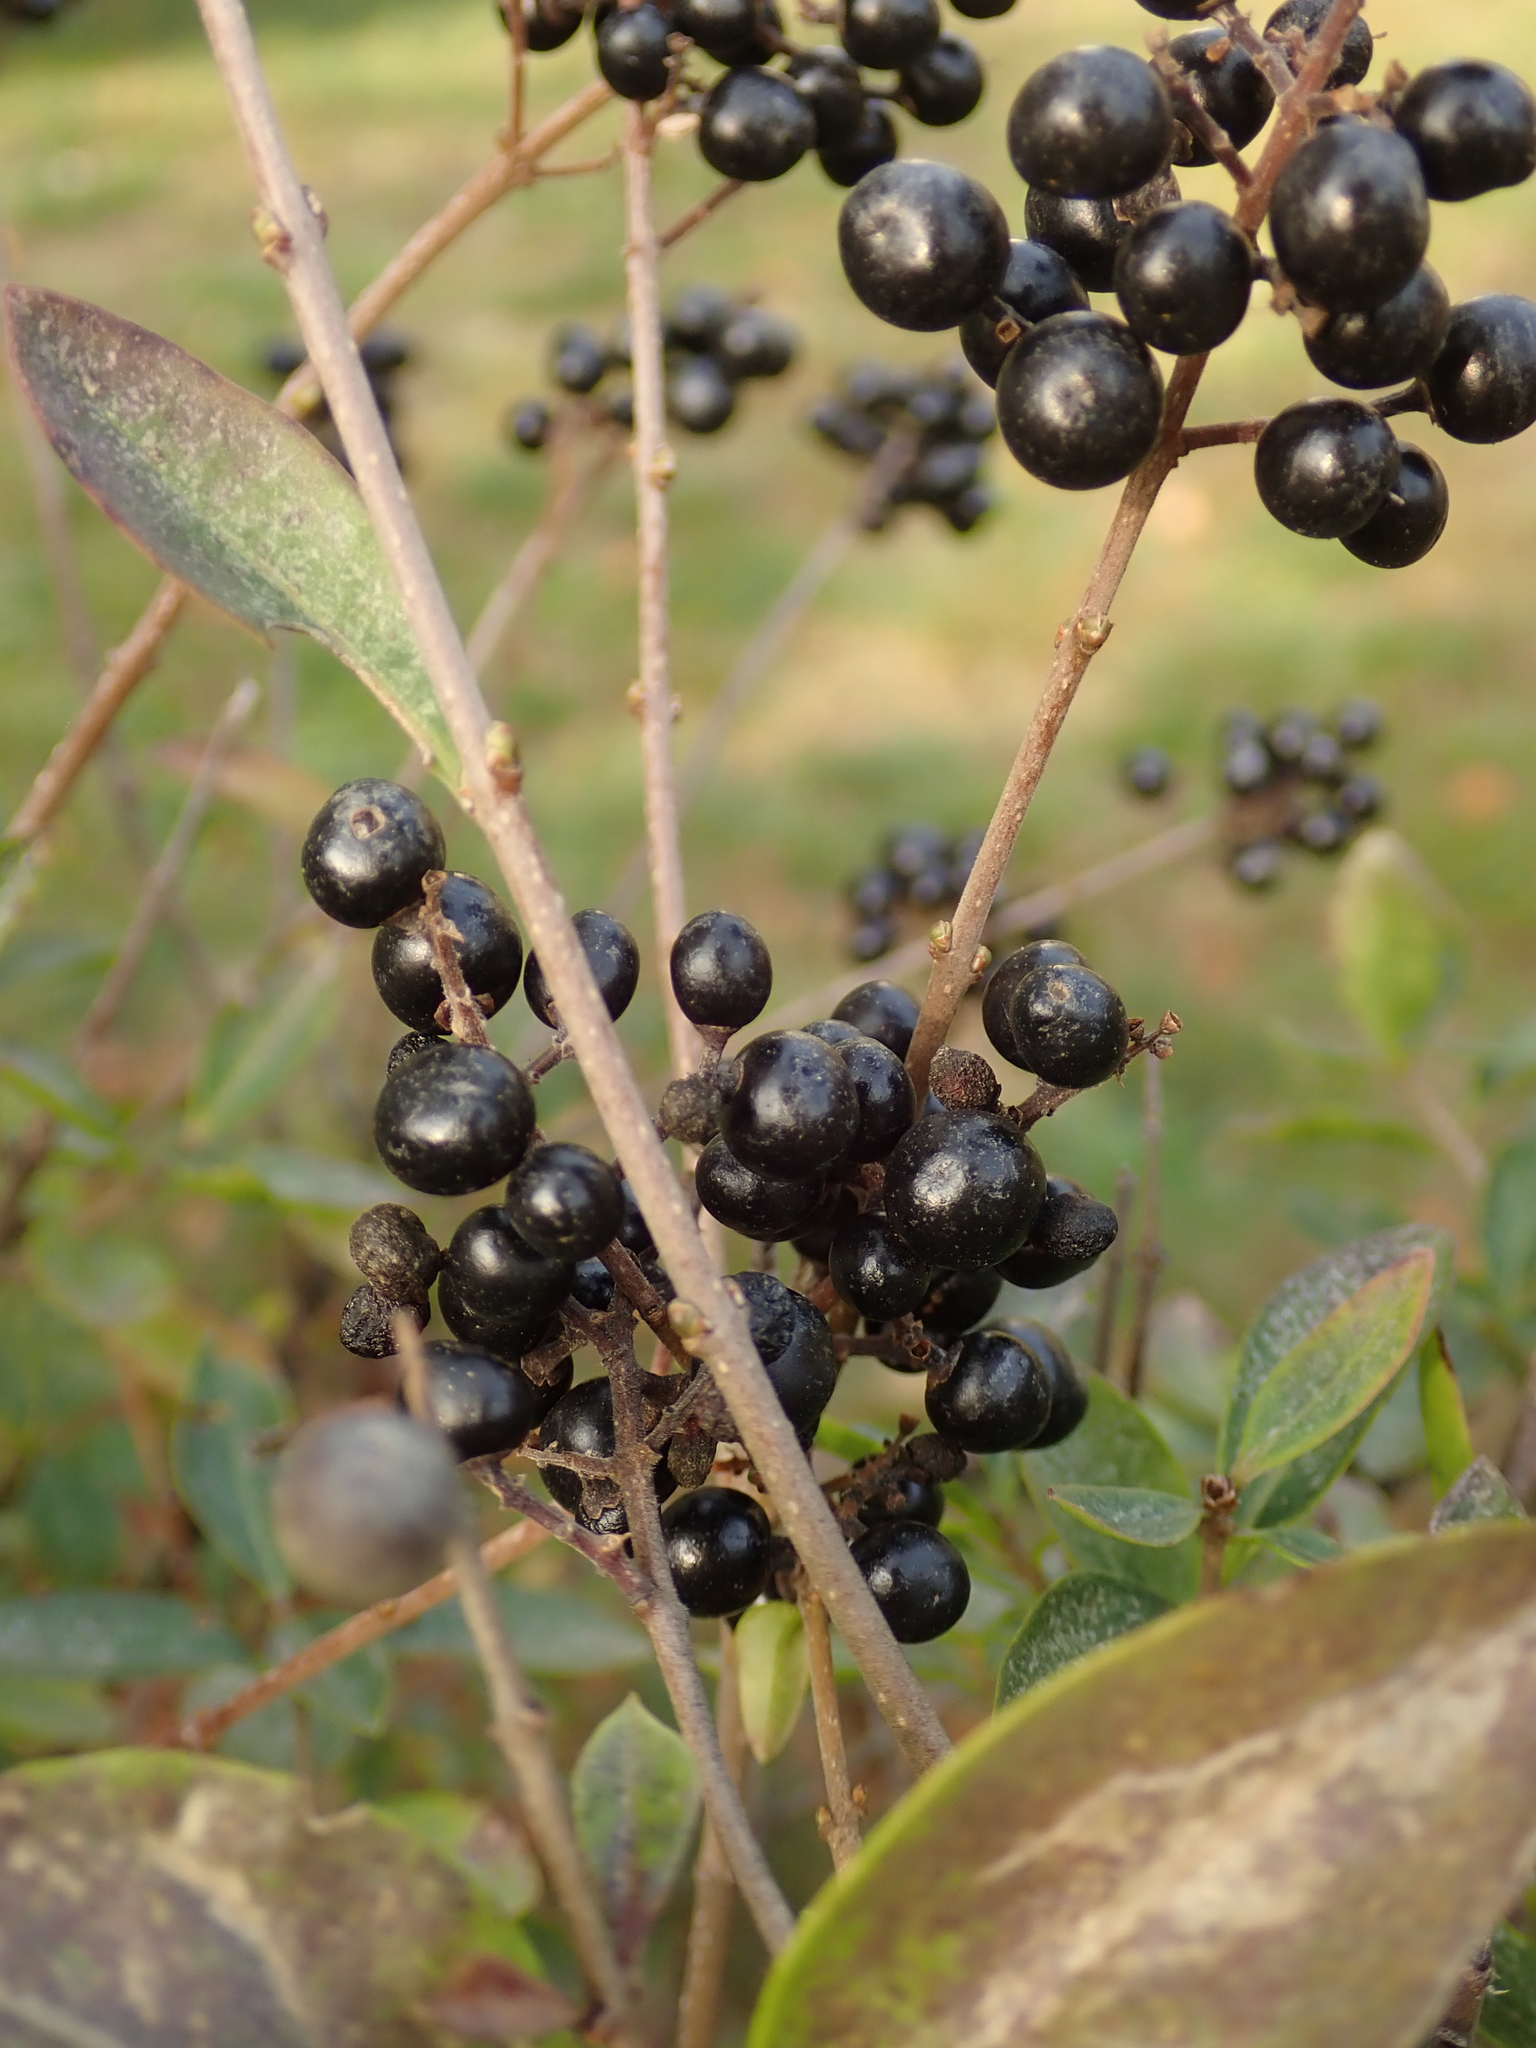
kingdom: Plantae
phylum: Tracheophyta
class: Magnoliopsida
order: Lamiales
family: Oleaceae
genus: Ligustrum
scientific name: Ligustrum vulgare
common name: Wild privet
